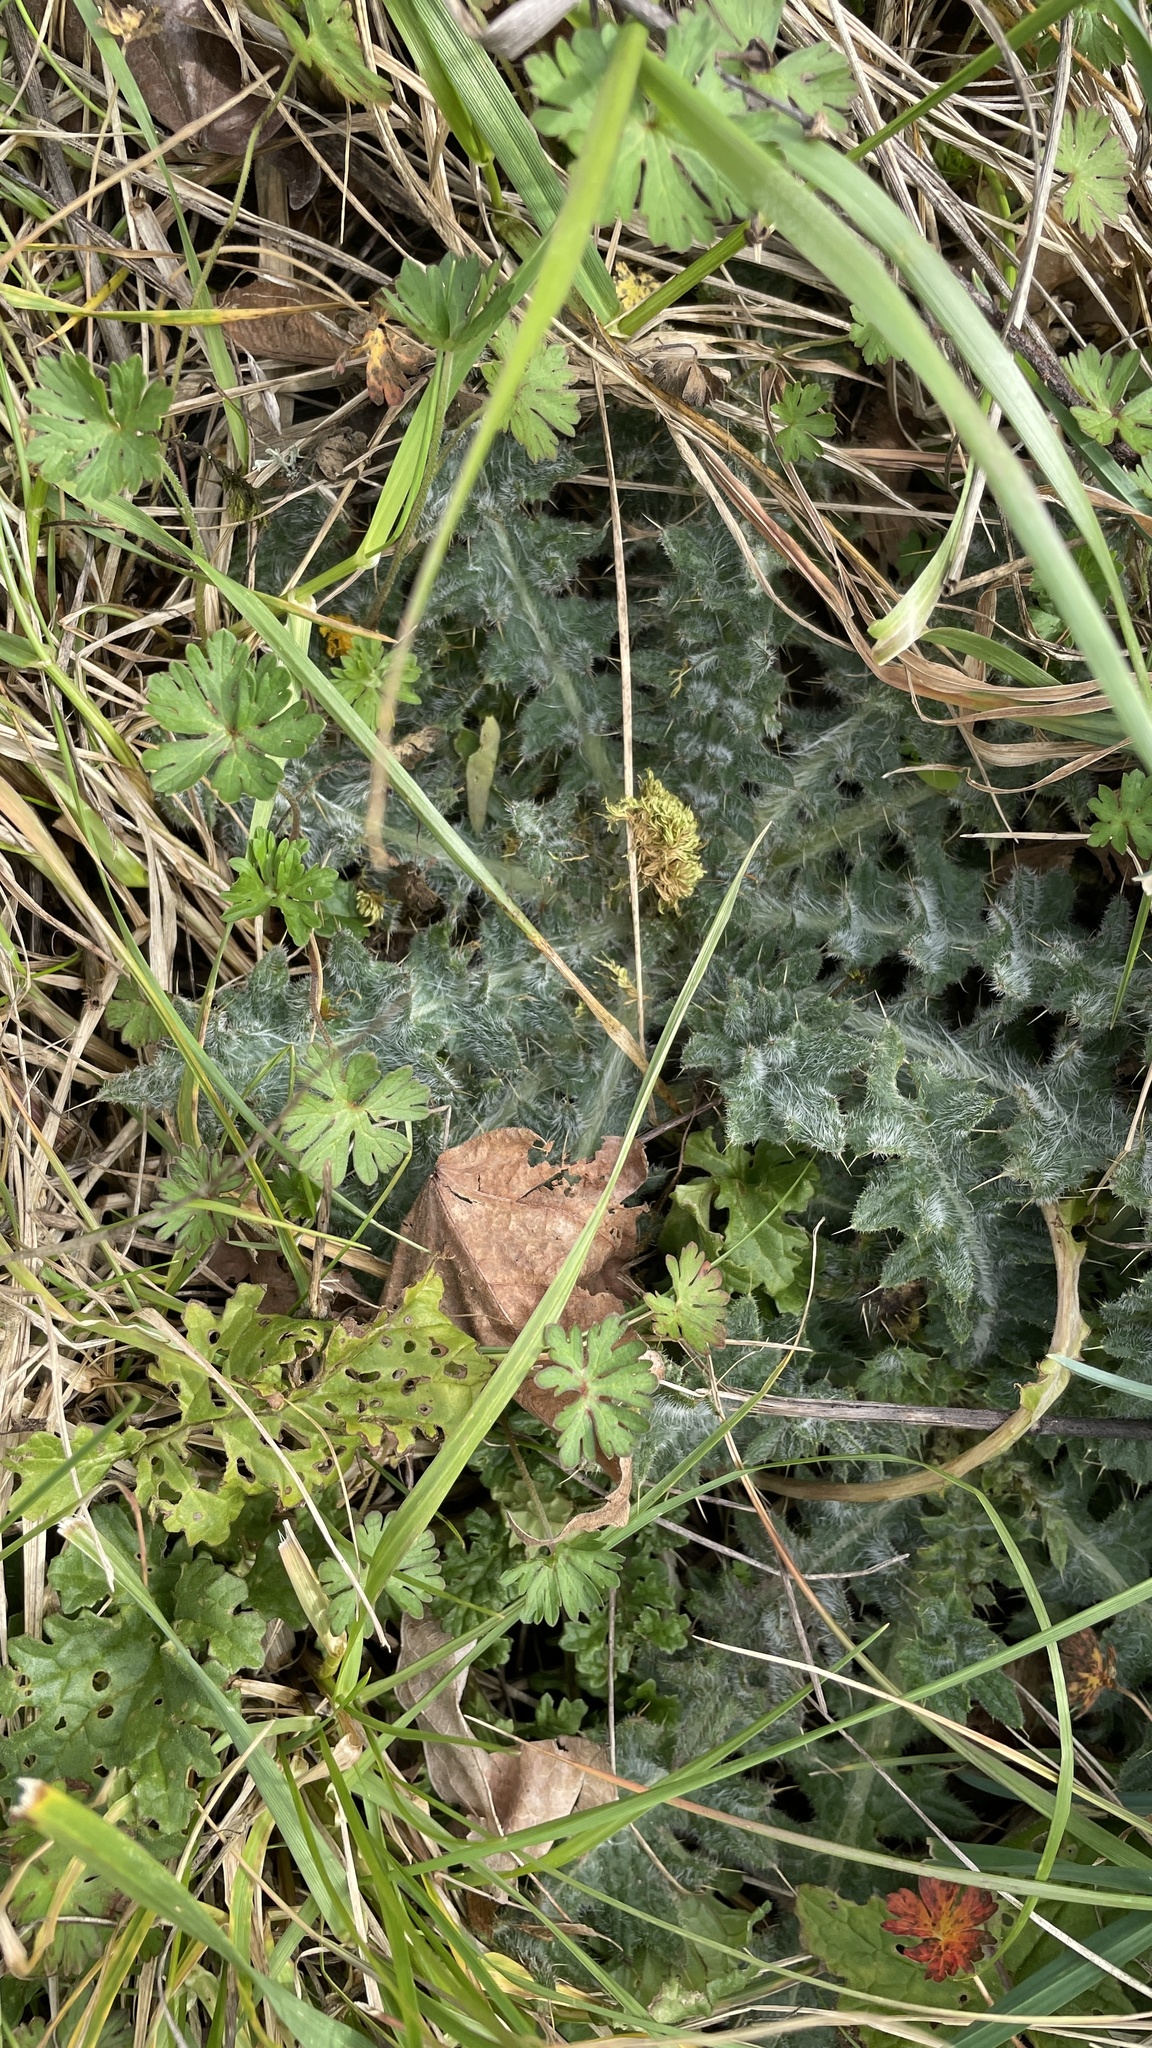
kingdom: Plantae
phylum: Tracheophyta
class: Magnoliopsida
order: Asterales
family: Asteraceae
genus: Cirsium
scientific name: Cirsium vulgare
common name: Bull thistle
